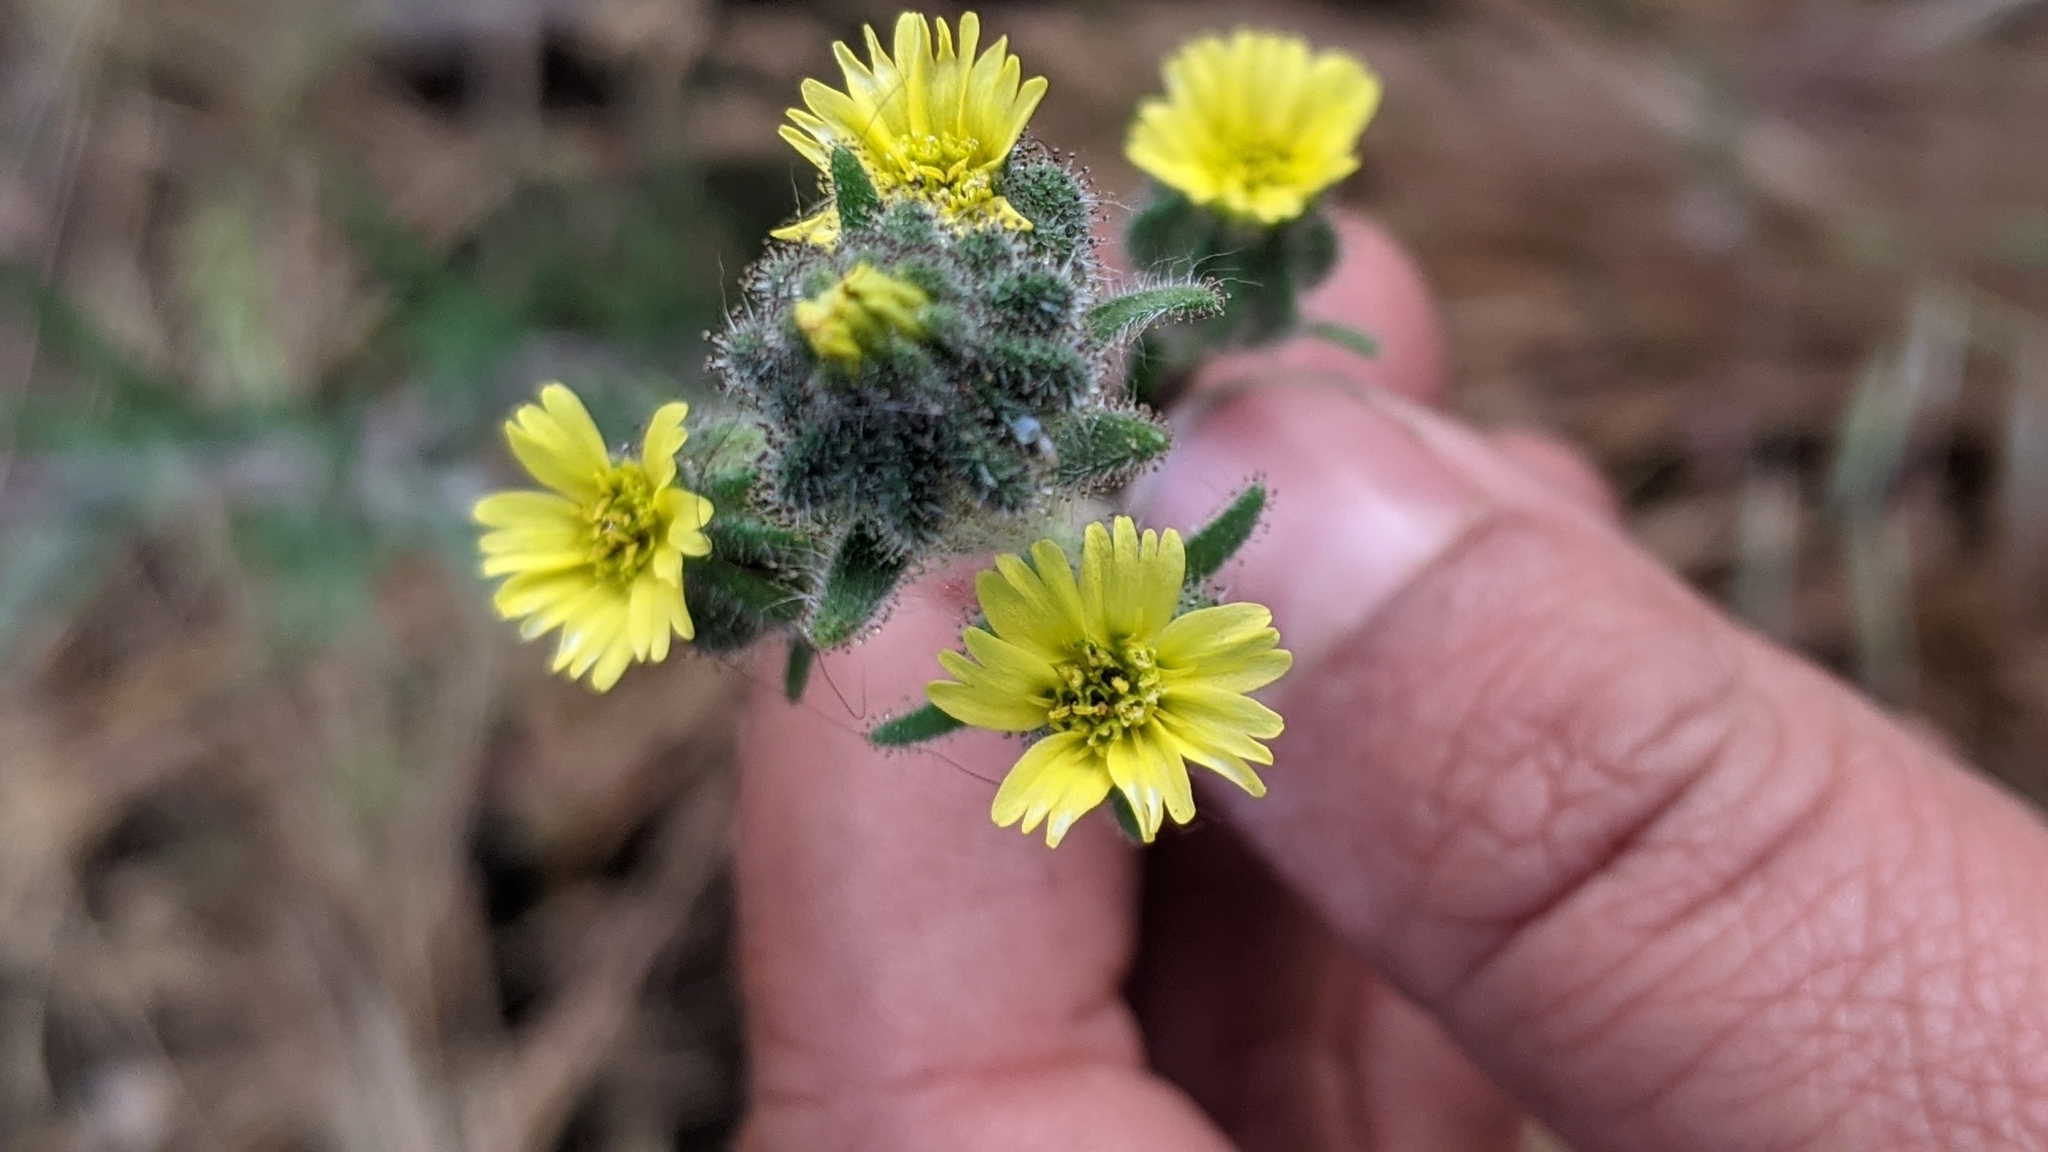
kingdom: Plantae
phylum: Tracheophyta
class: Magnoliopsida
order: Asterales
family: Asteraceae
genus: Madia
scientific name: Madia gracilis
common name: Grassy tarweed
